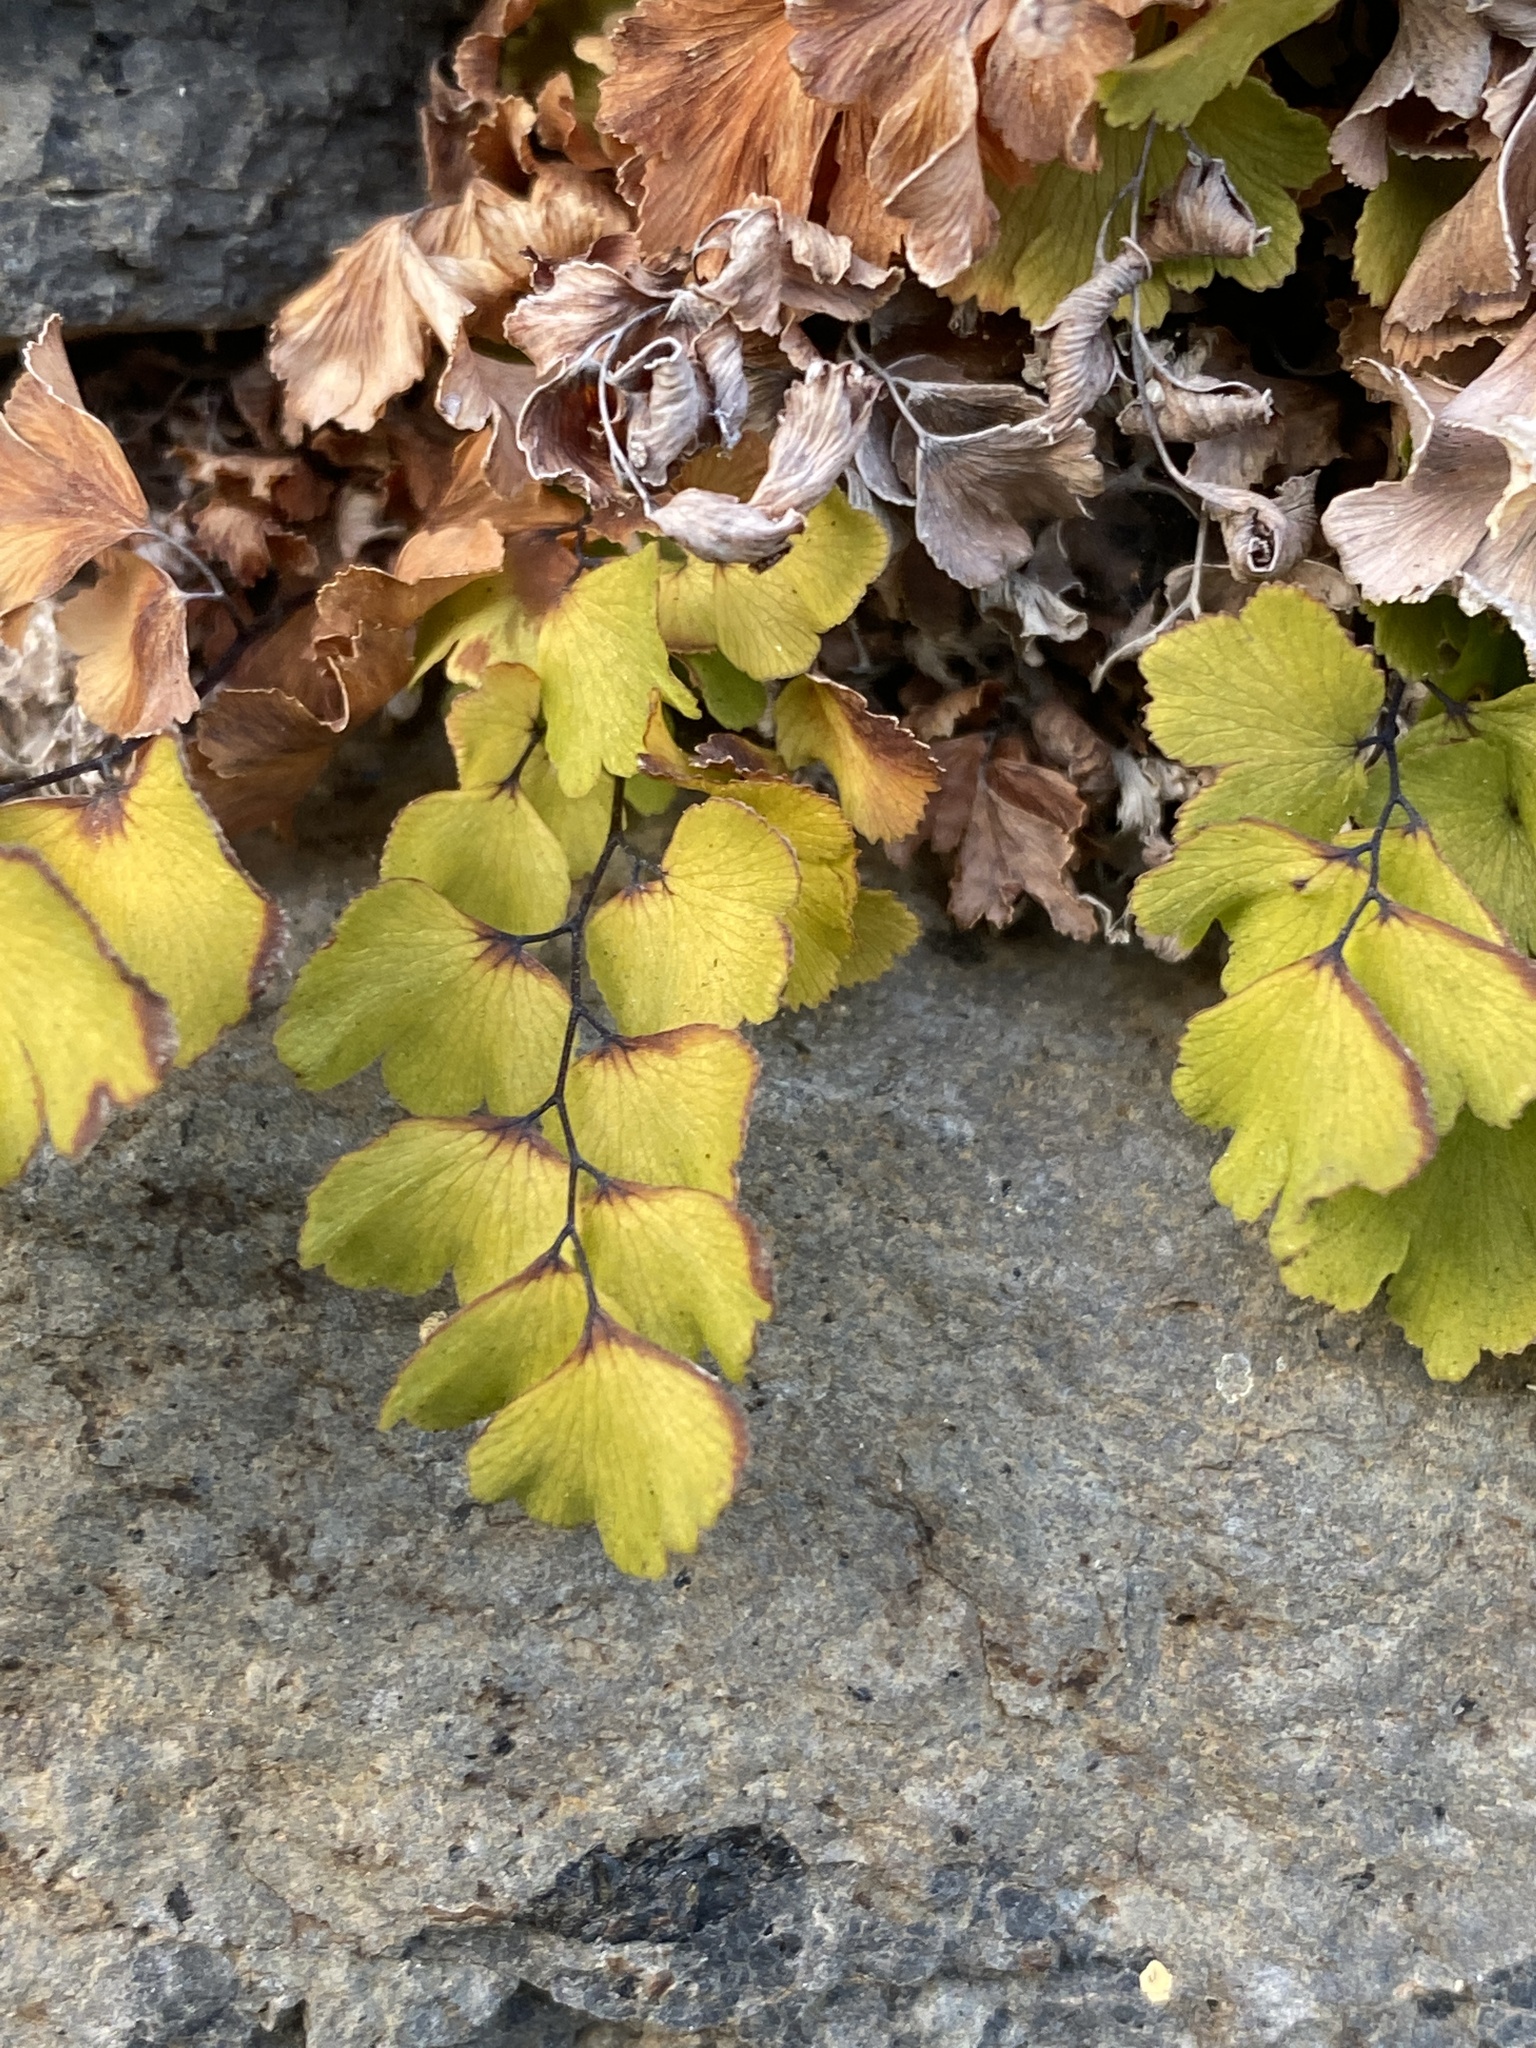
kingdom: Plantae
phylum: Tracheophyta
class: Polypodiopsida
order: Polypodiales
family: Pteridaceae
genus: Adiantum
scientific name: Adiantum capillus-veneris
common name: Maidenhair fern
